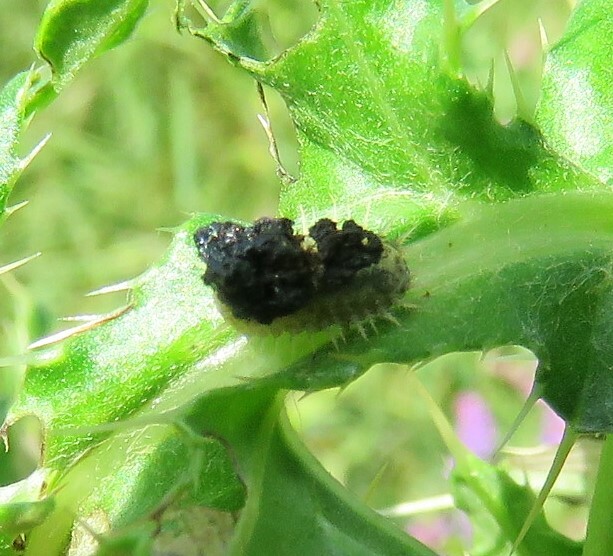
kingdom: Animalia
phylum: Arthropoda
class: Insecta
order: Coleoptera
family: Chrysomelidae
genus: Cassida
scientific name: Cassida rubiginosa
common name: Thistle tortoise beetle
